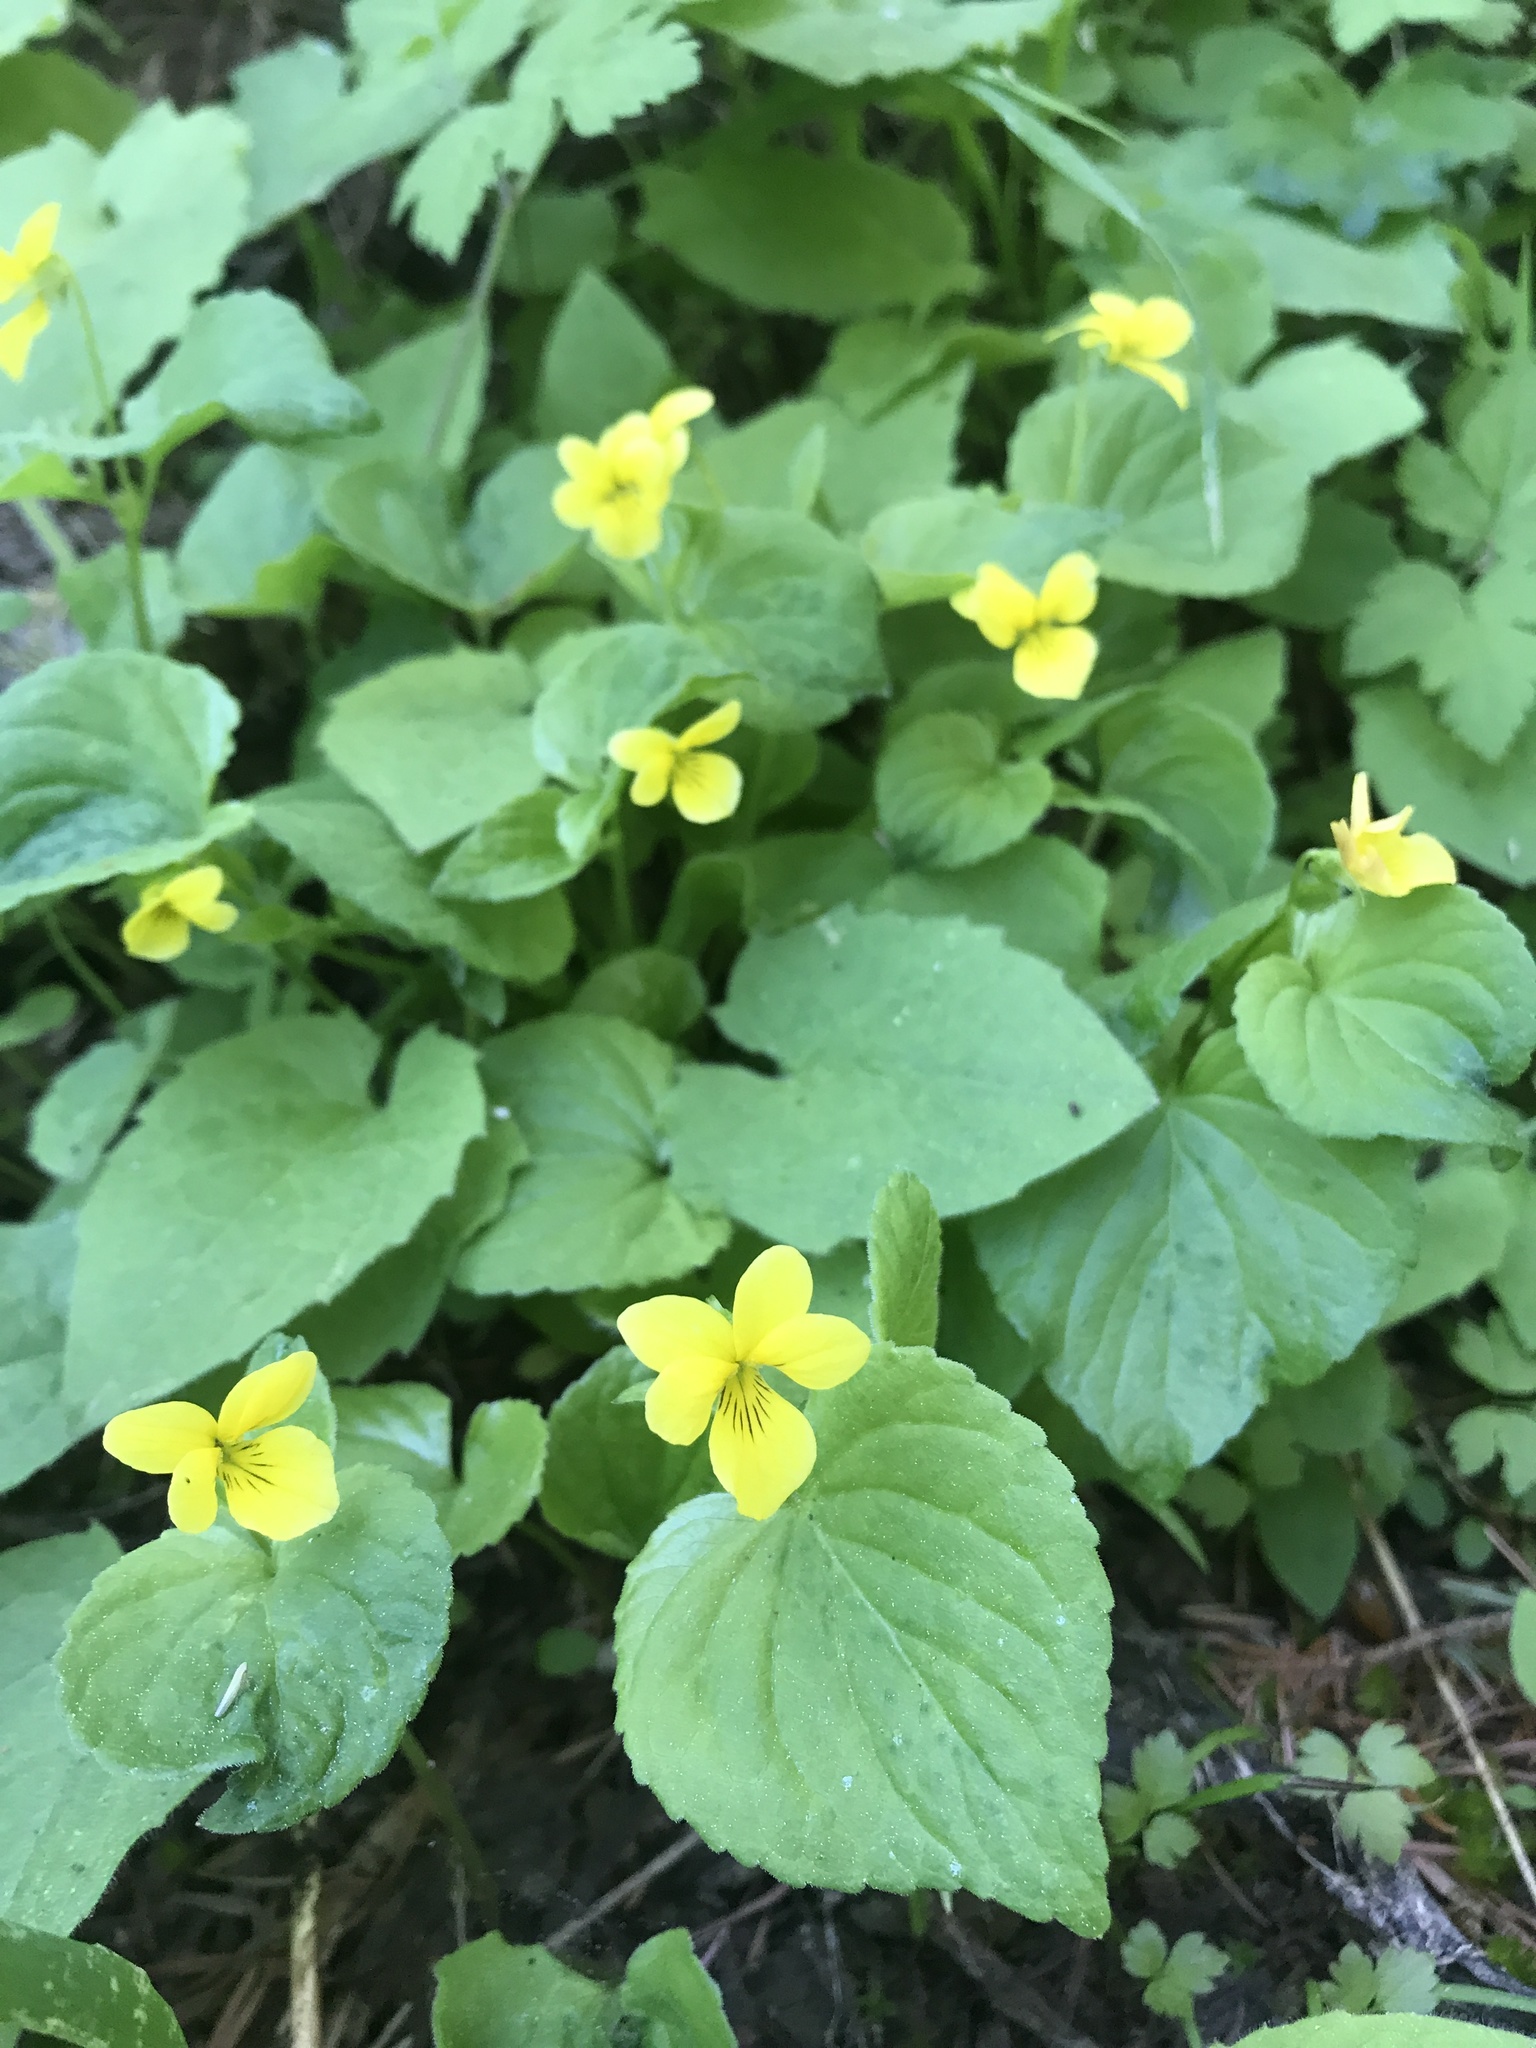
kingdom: Plantae
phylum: Tracheophyta
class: Magnoliopsida
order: Malpighiales
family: Violaceae
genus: Viola
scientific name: Viola glabella
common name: Stream violet
